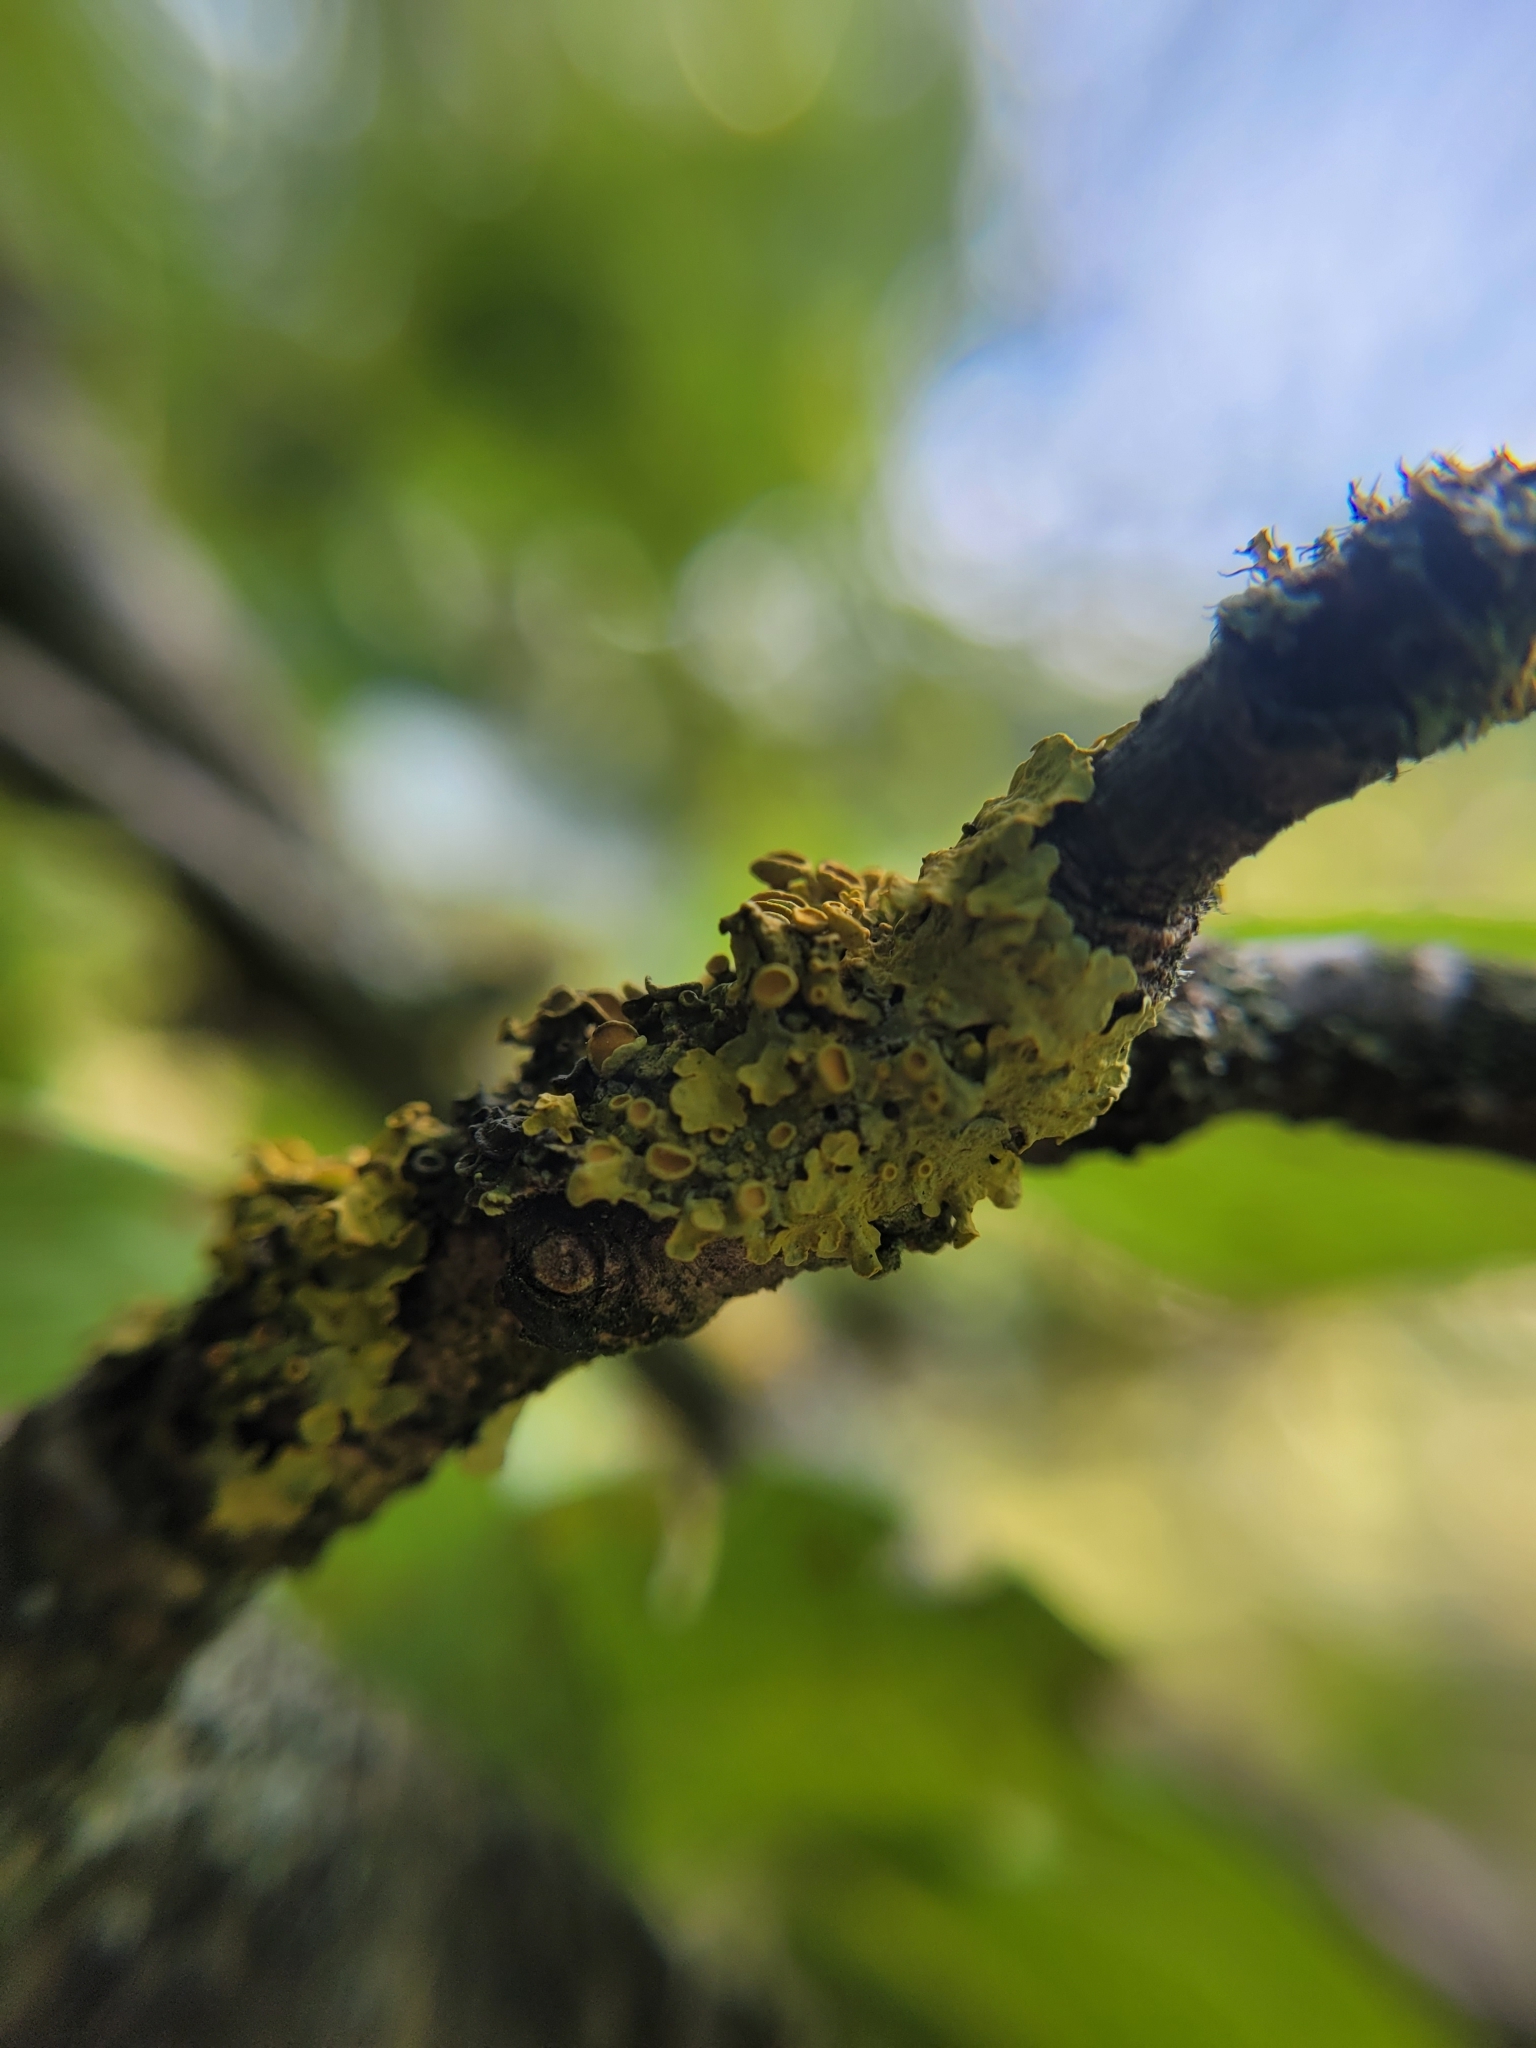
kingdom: Fungi
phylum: Ascomycota
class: Lecanoromycetes
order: Teloschistales
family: Teloschistaceae
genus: Xanthoria
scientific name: Xanthoria parietina
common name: Common orange lichen
